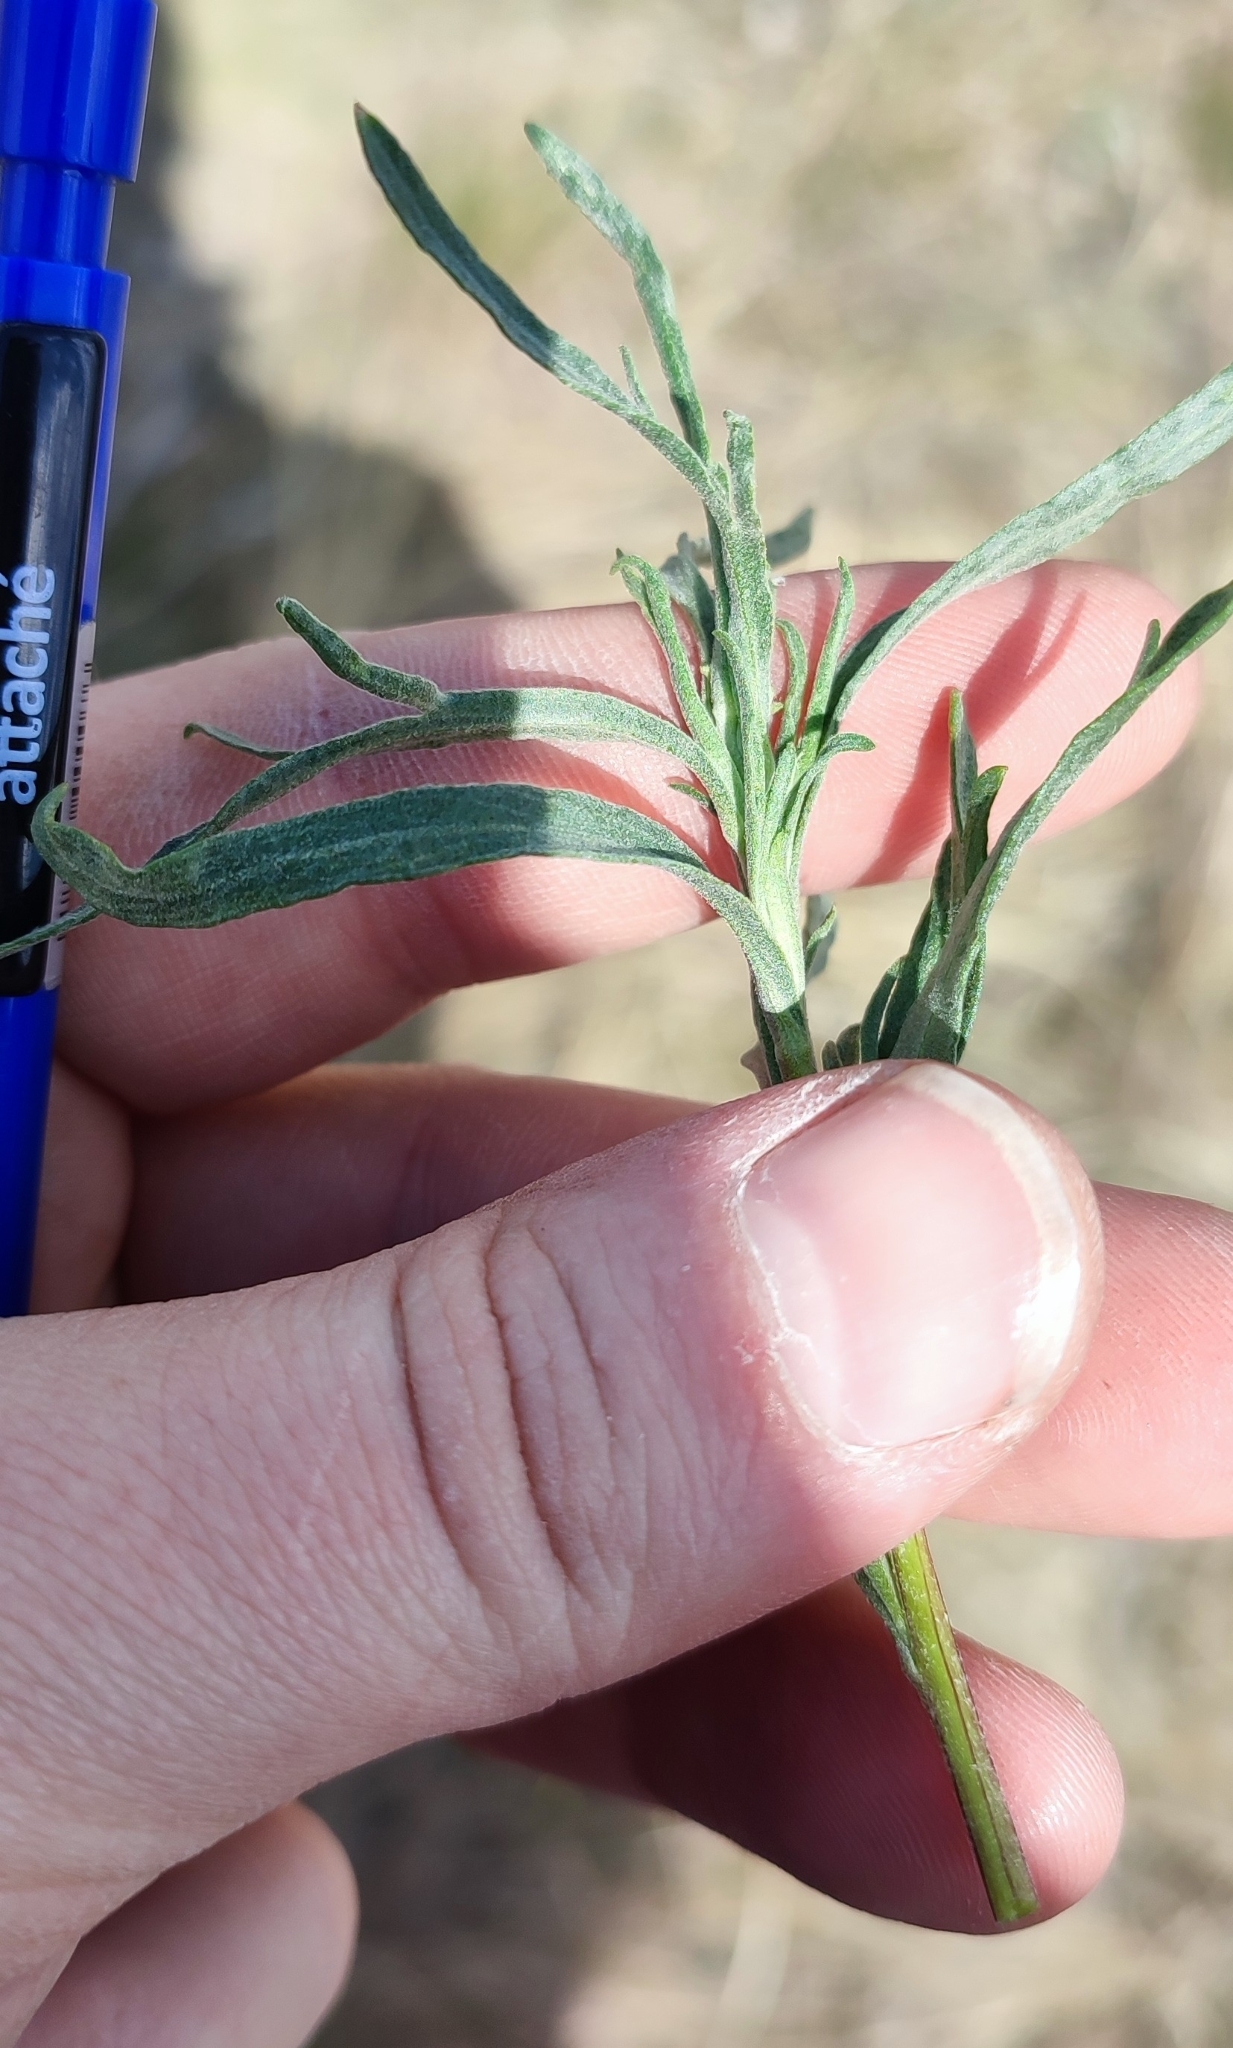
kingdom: Plantae
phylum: Tracheophyta
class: Magnoliopsida
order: Asterales
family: Asteraceae
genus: Artemisia
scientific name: Artemisia dracunculus
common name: Tarragon
